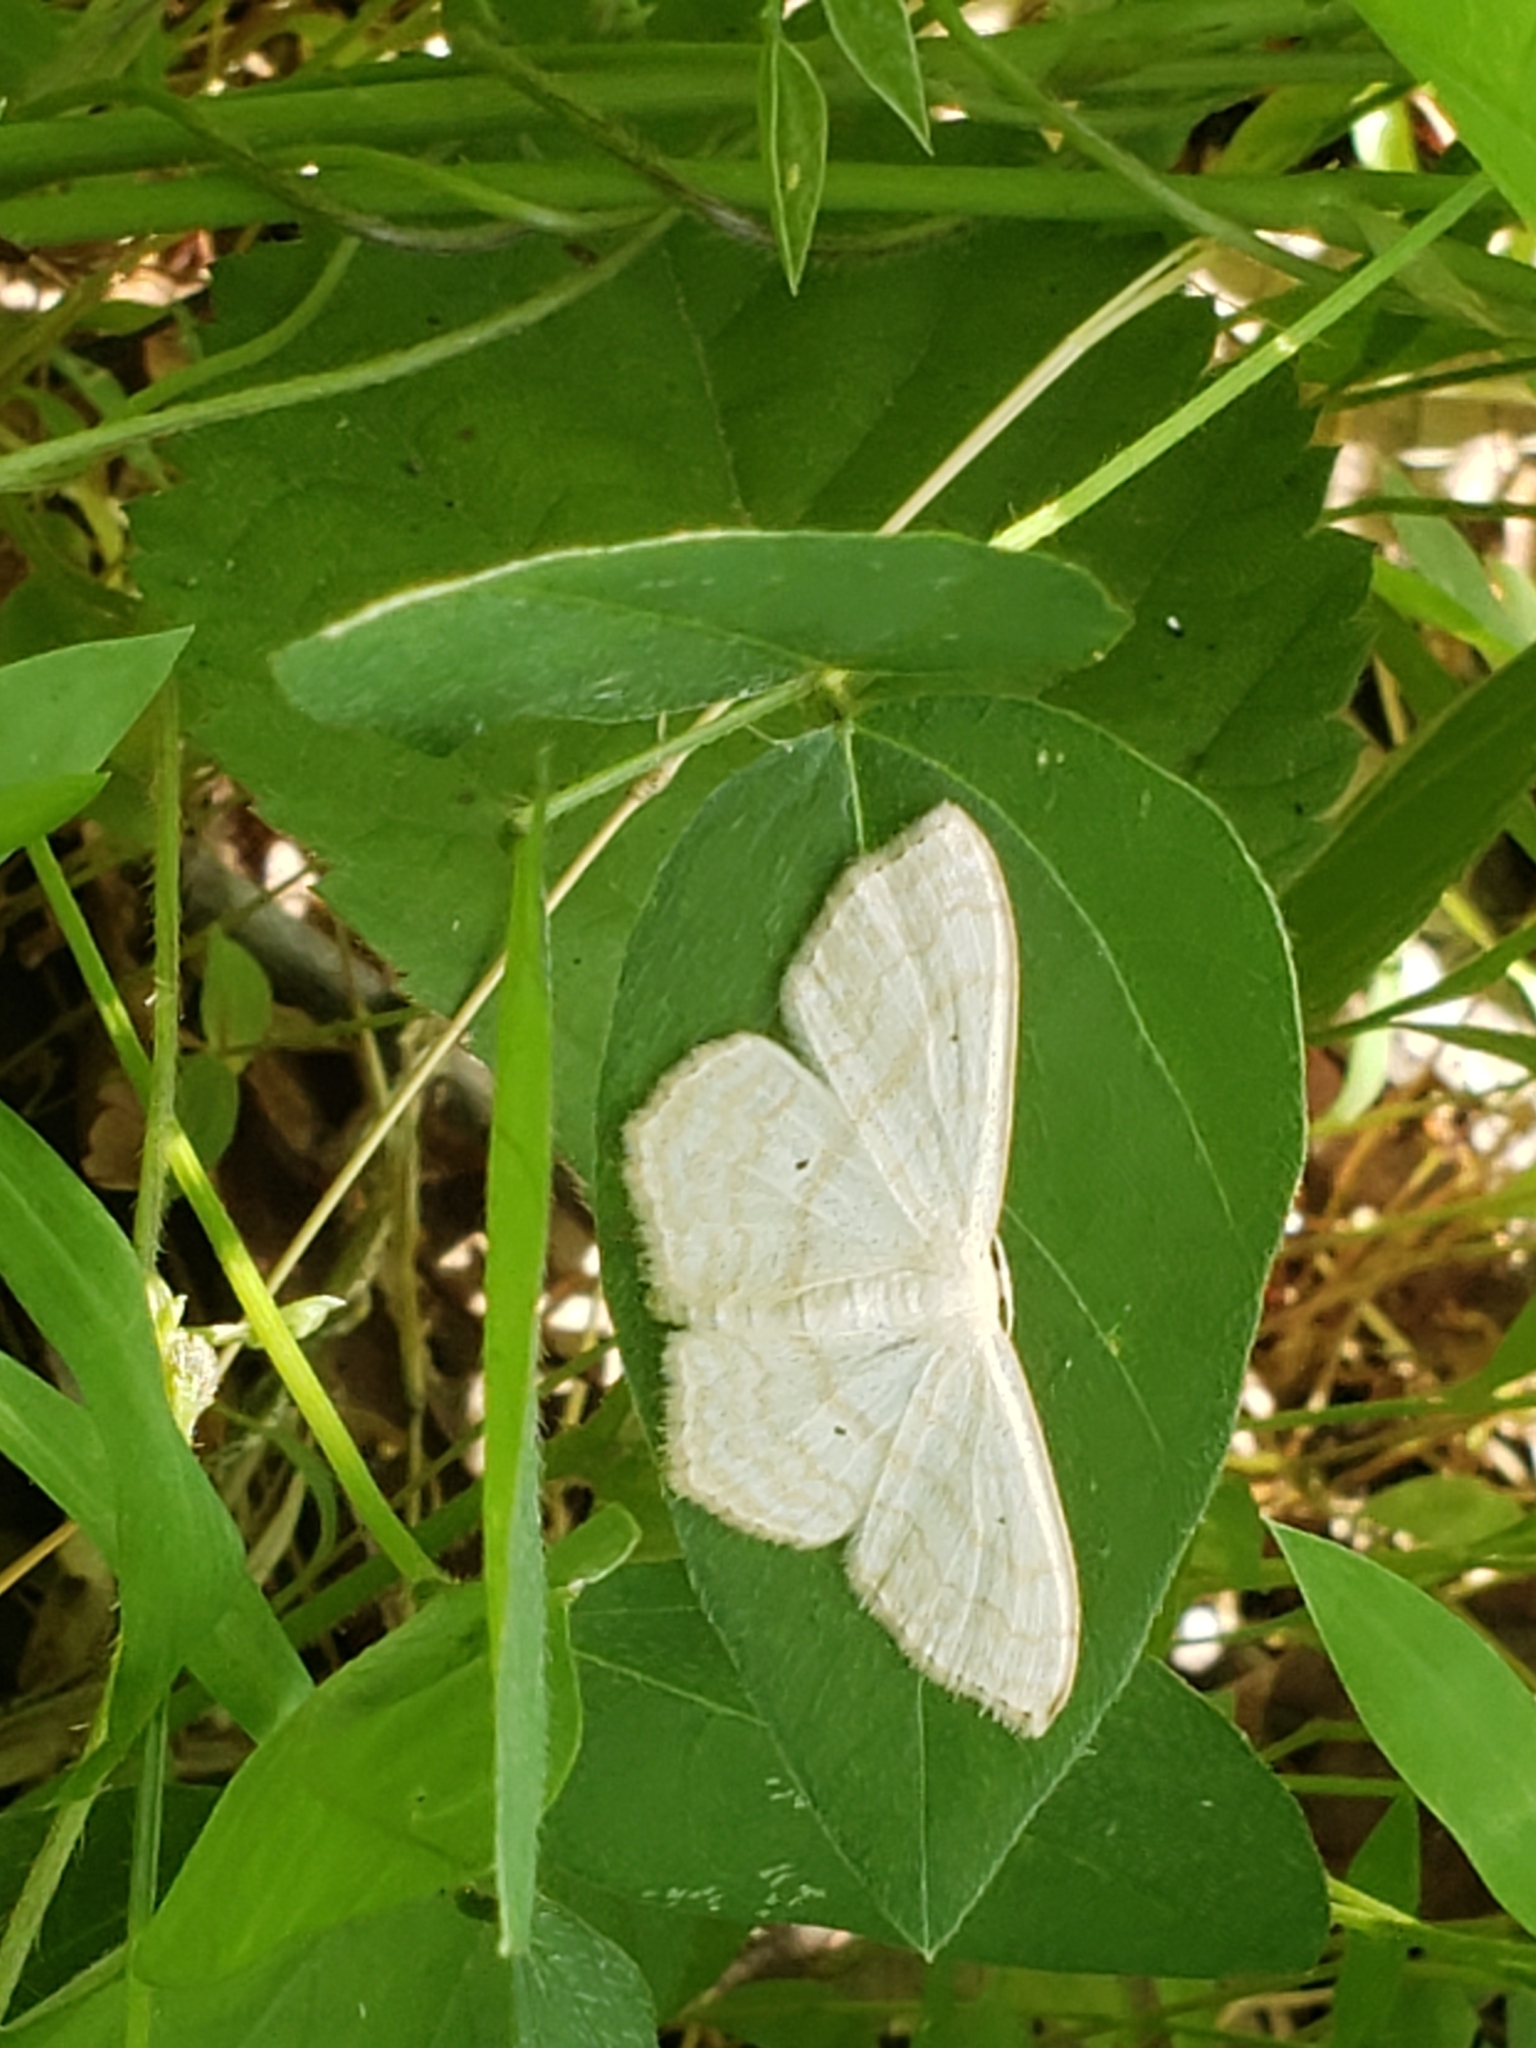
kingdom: Animalia
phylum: Arthropoda
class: Insecta
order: Lepidoptera
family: Geometridae
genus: Scopula
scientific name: Scopula limboundata
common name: Large lace border
